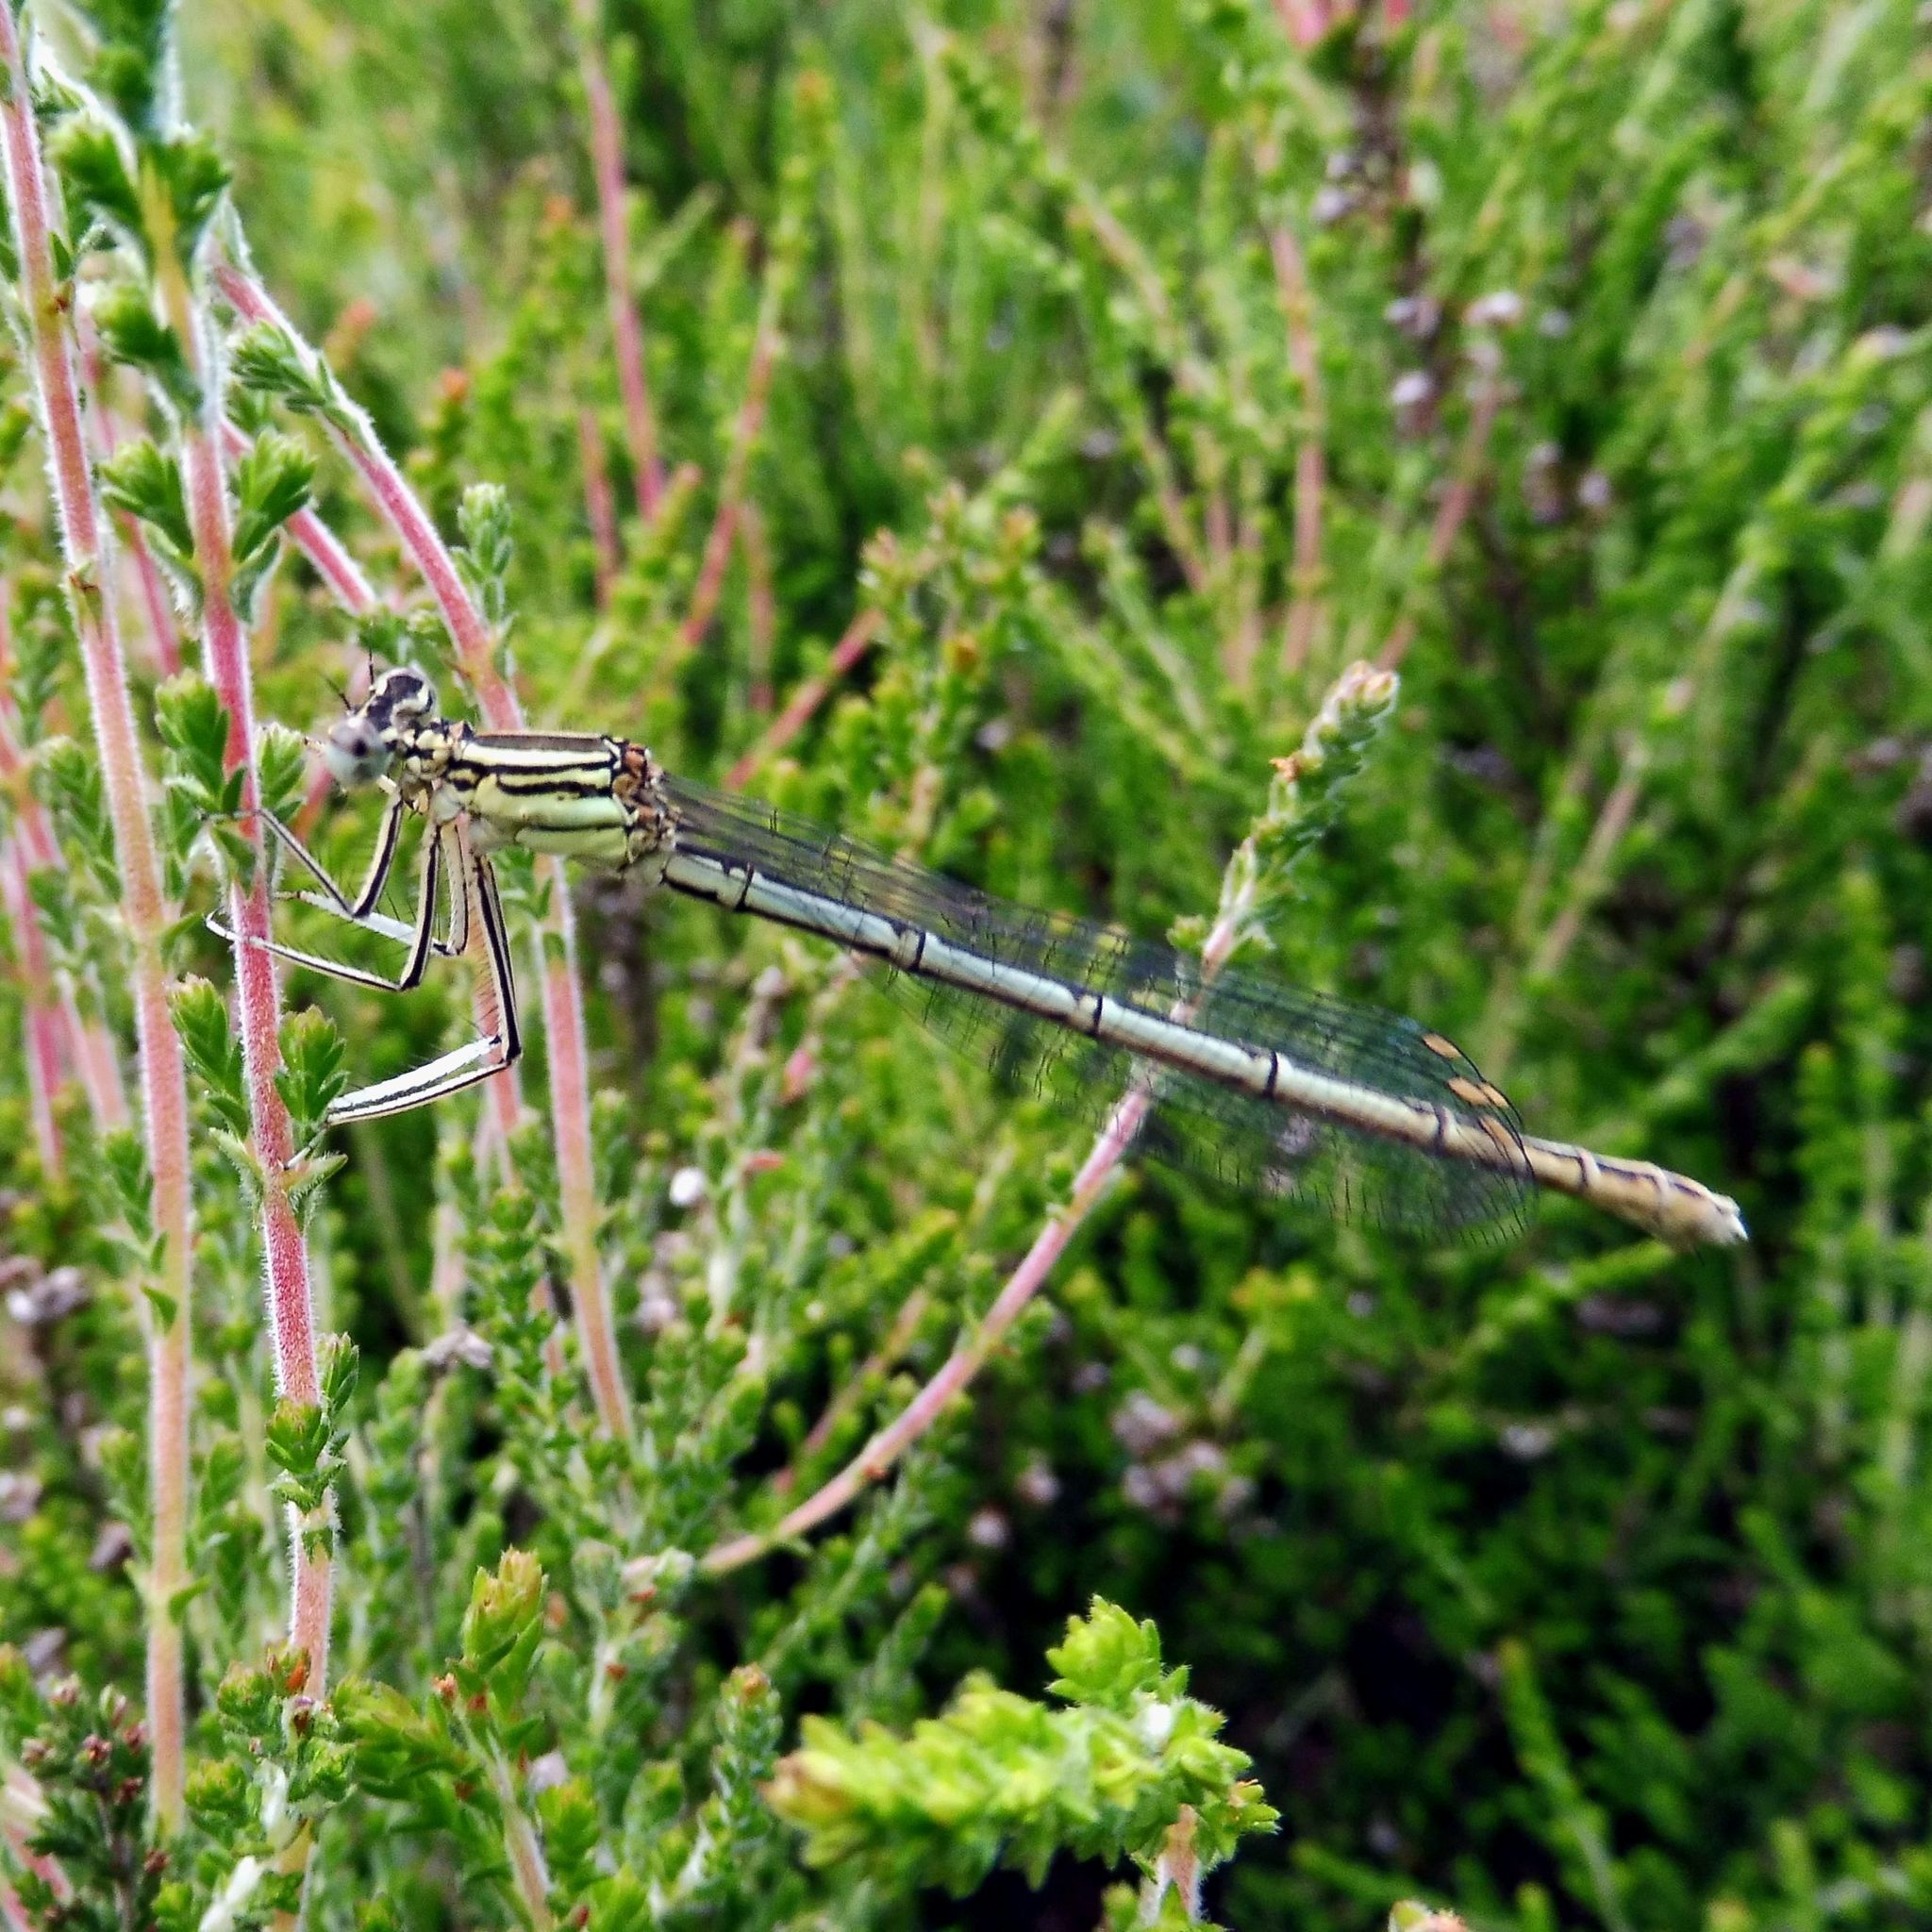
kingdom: Animalia
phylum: Arthropoda
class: Insecta
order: Odonata
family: Platycnemididae
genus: Platycnemis
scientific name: Platycnemis pennipes
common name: White-legged damselfly
